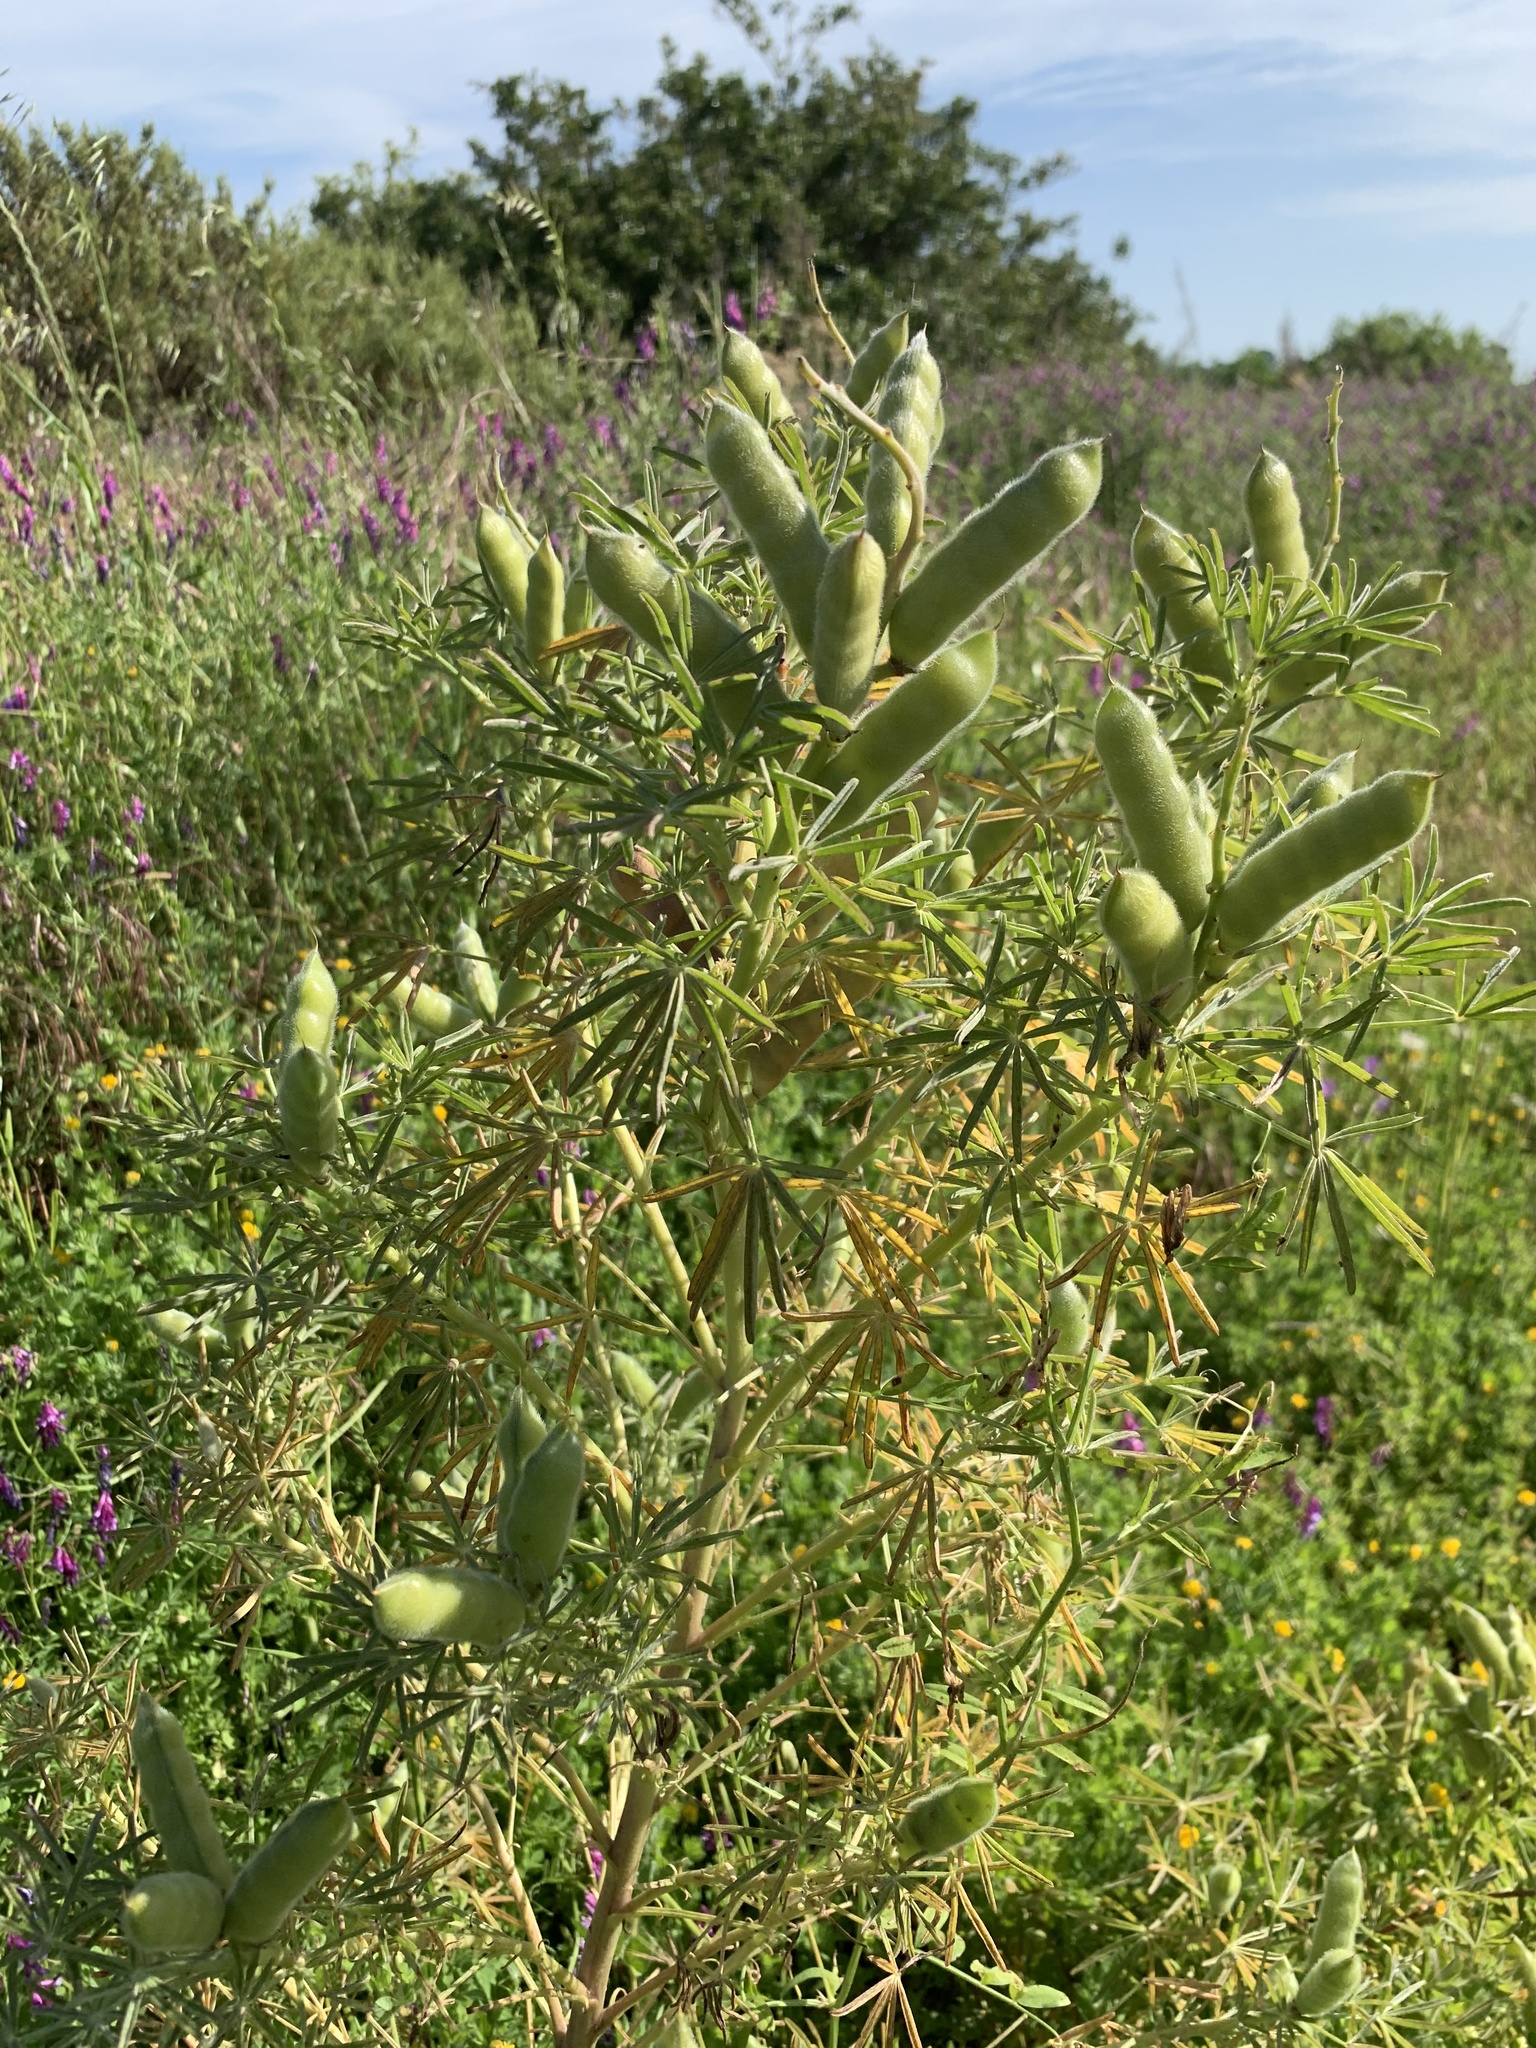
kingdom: Plantae
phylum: Tracheophyta
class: Magnoliopsida
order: Fabales
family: Fabaceae
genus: Lupinus
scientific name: Lupinus angustifolius
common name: Narrow-leaved lupin
